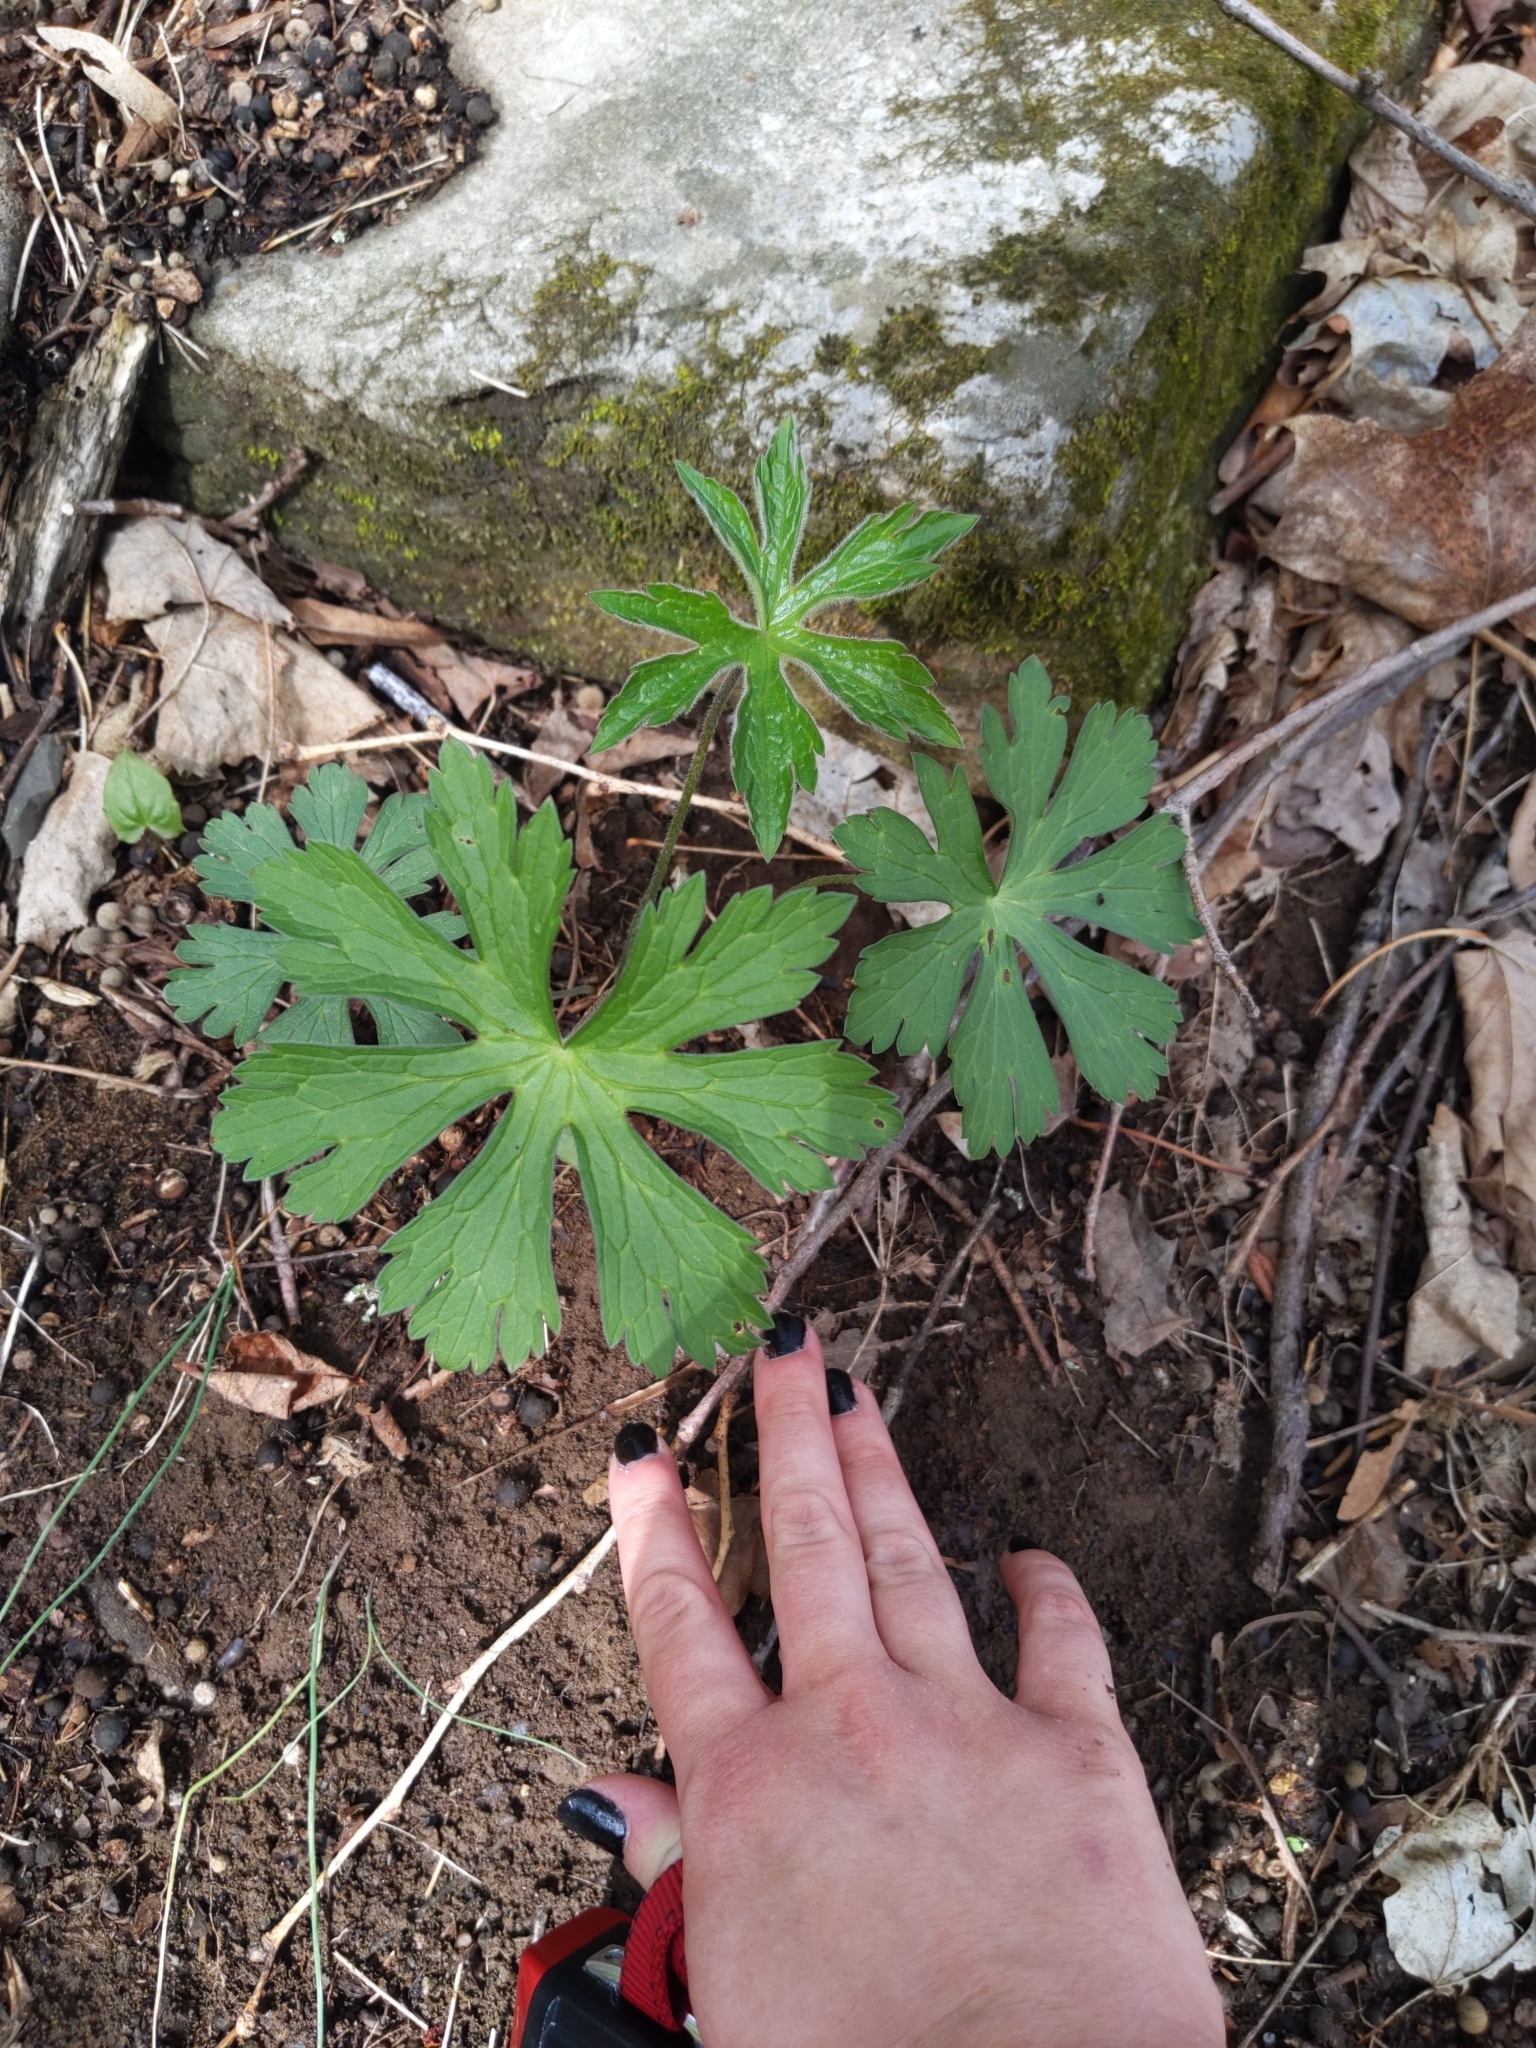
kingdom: Plantae
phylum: Tracheophyta
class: Magnoliopsida
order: Geraniales
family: Geraniaceae
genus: Geranium
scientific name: Geranium maculatum
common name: Spotted geranium
